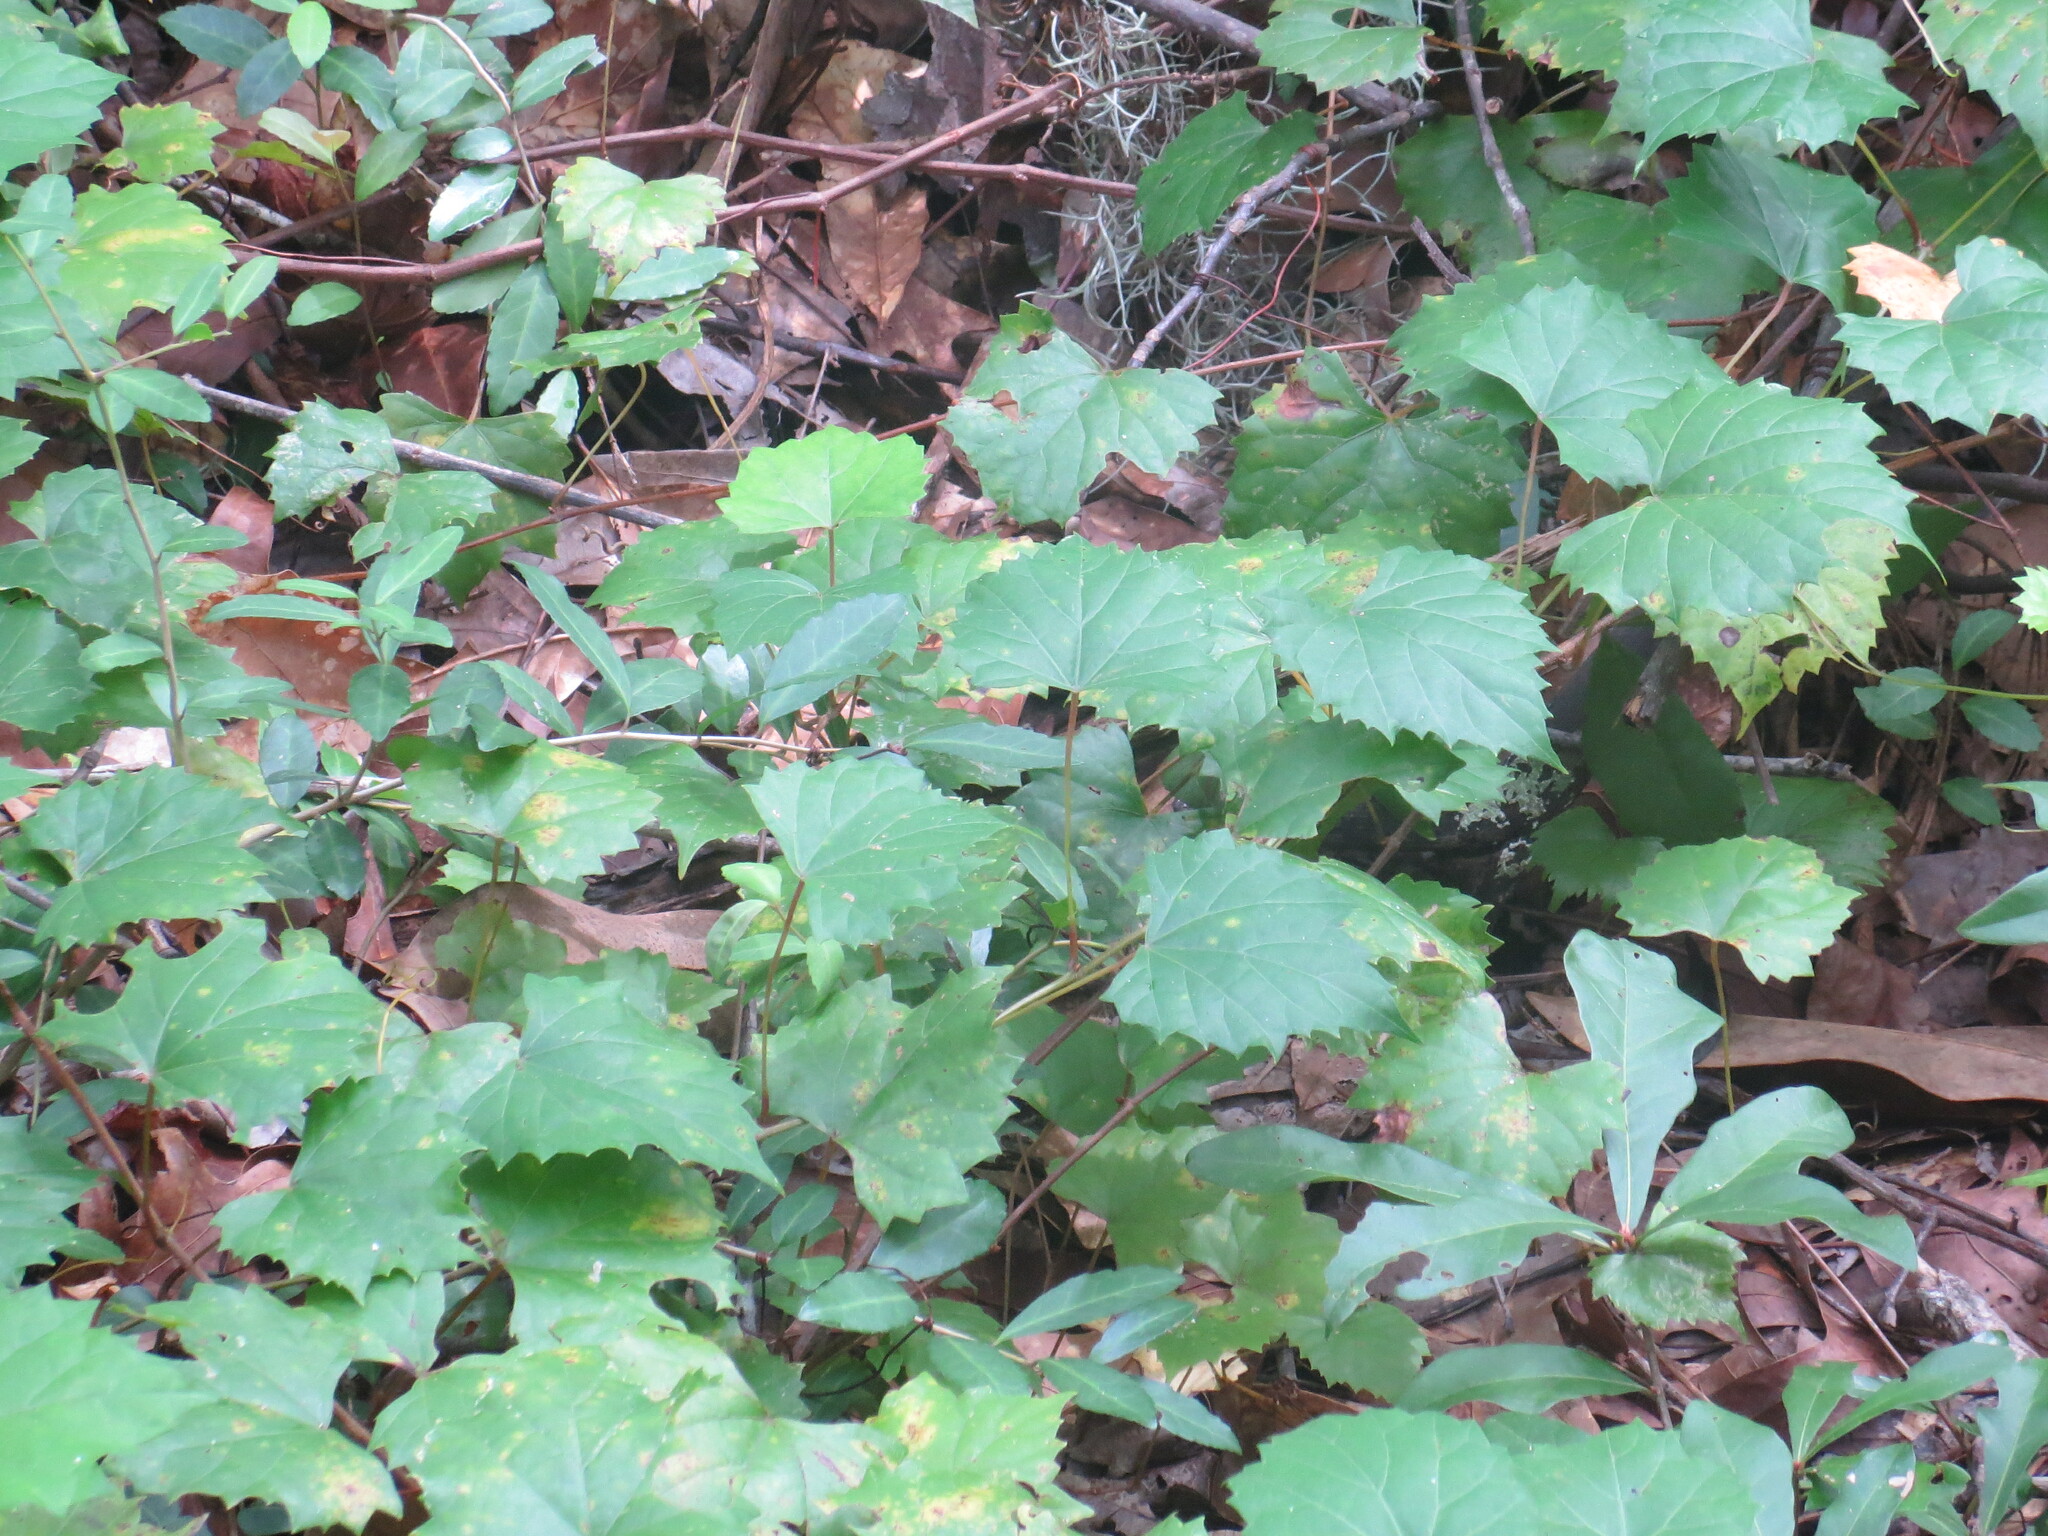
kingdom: Plantae
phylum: Tracheophyta
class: Magnoliopsida
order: Vitales
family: Vitaceae
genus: Vitis
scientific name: Vitis rotundifolia
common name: Muscadine grape
